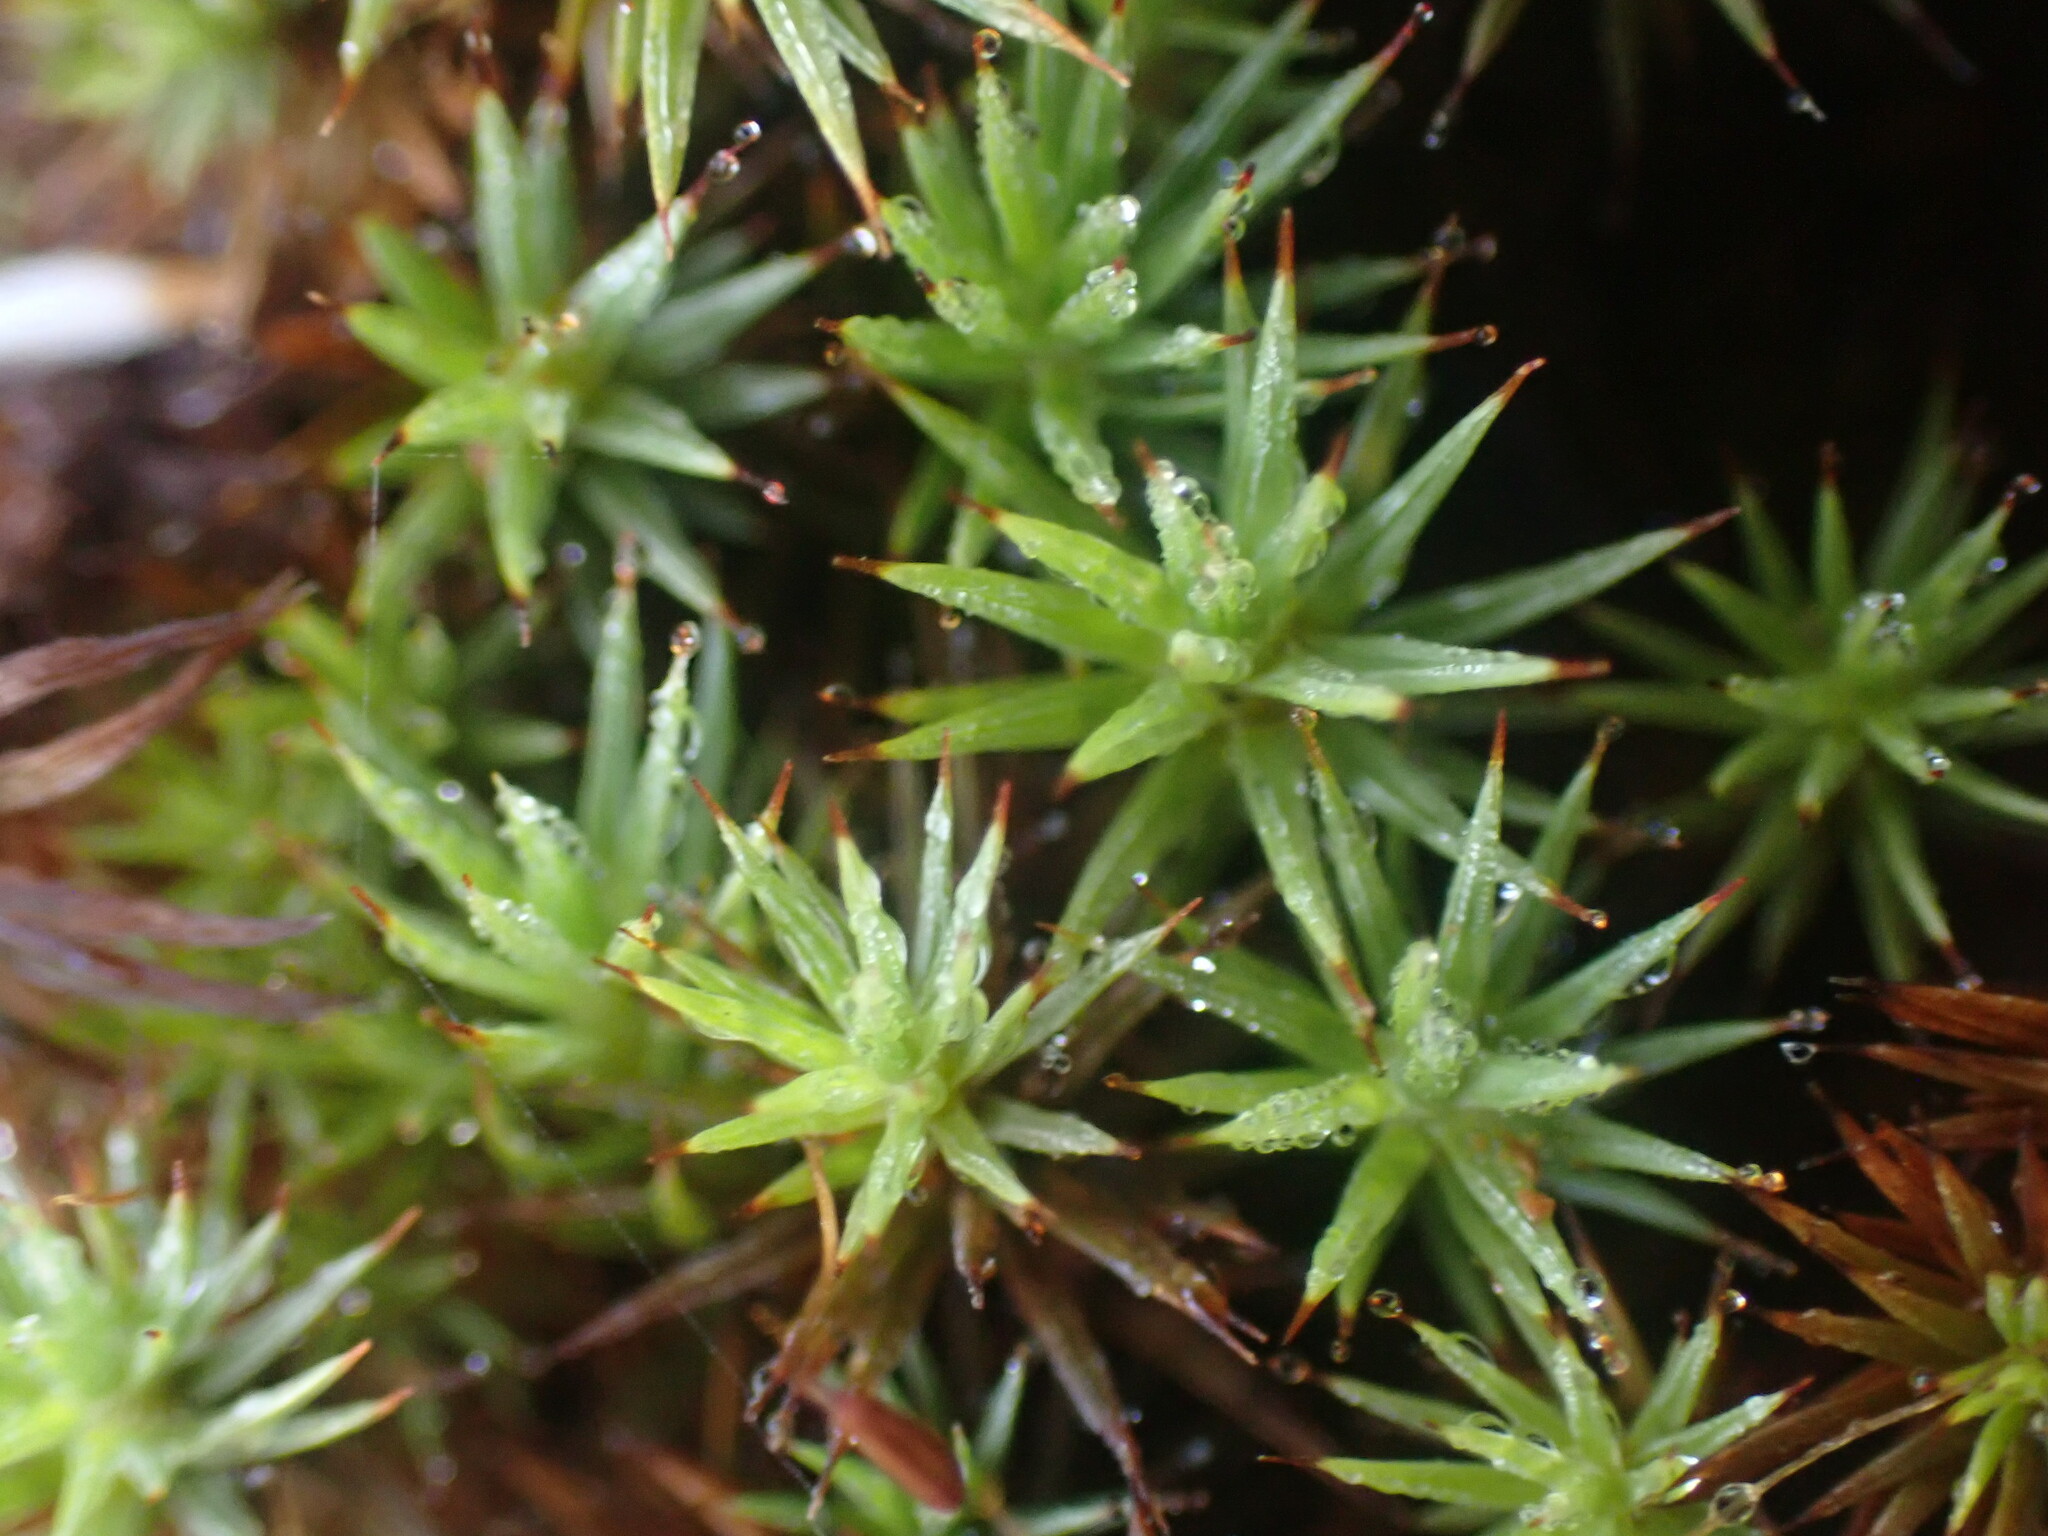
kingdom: Plantae
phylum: Bryophyta
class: Polytrichopsida
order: Polytrichales
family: Polytrichaceae
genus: Polytrichum
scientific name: Polytrichum juniperinum
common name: Juniper haircap moss
